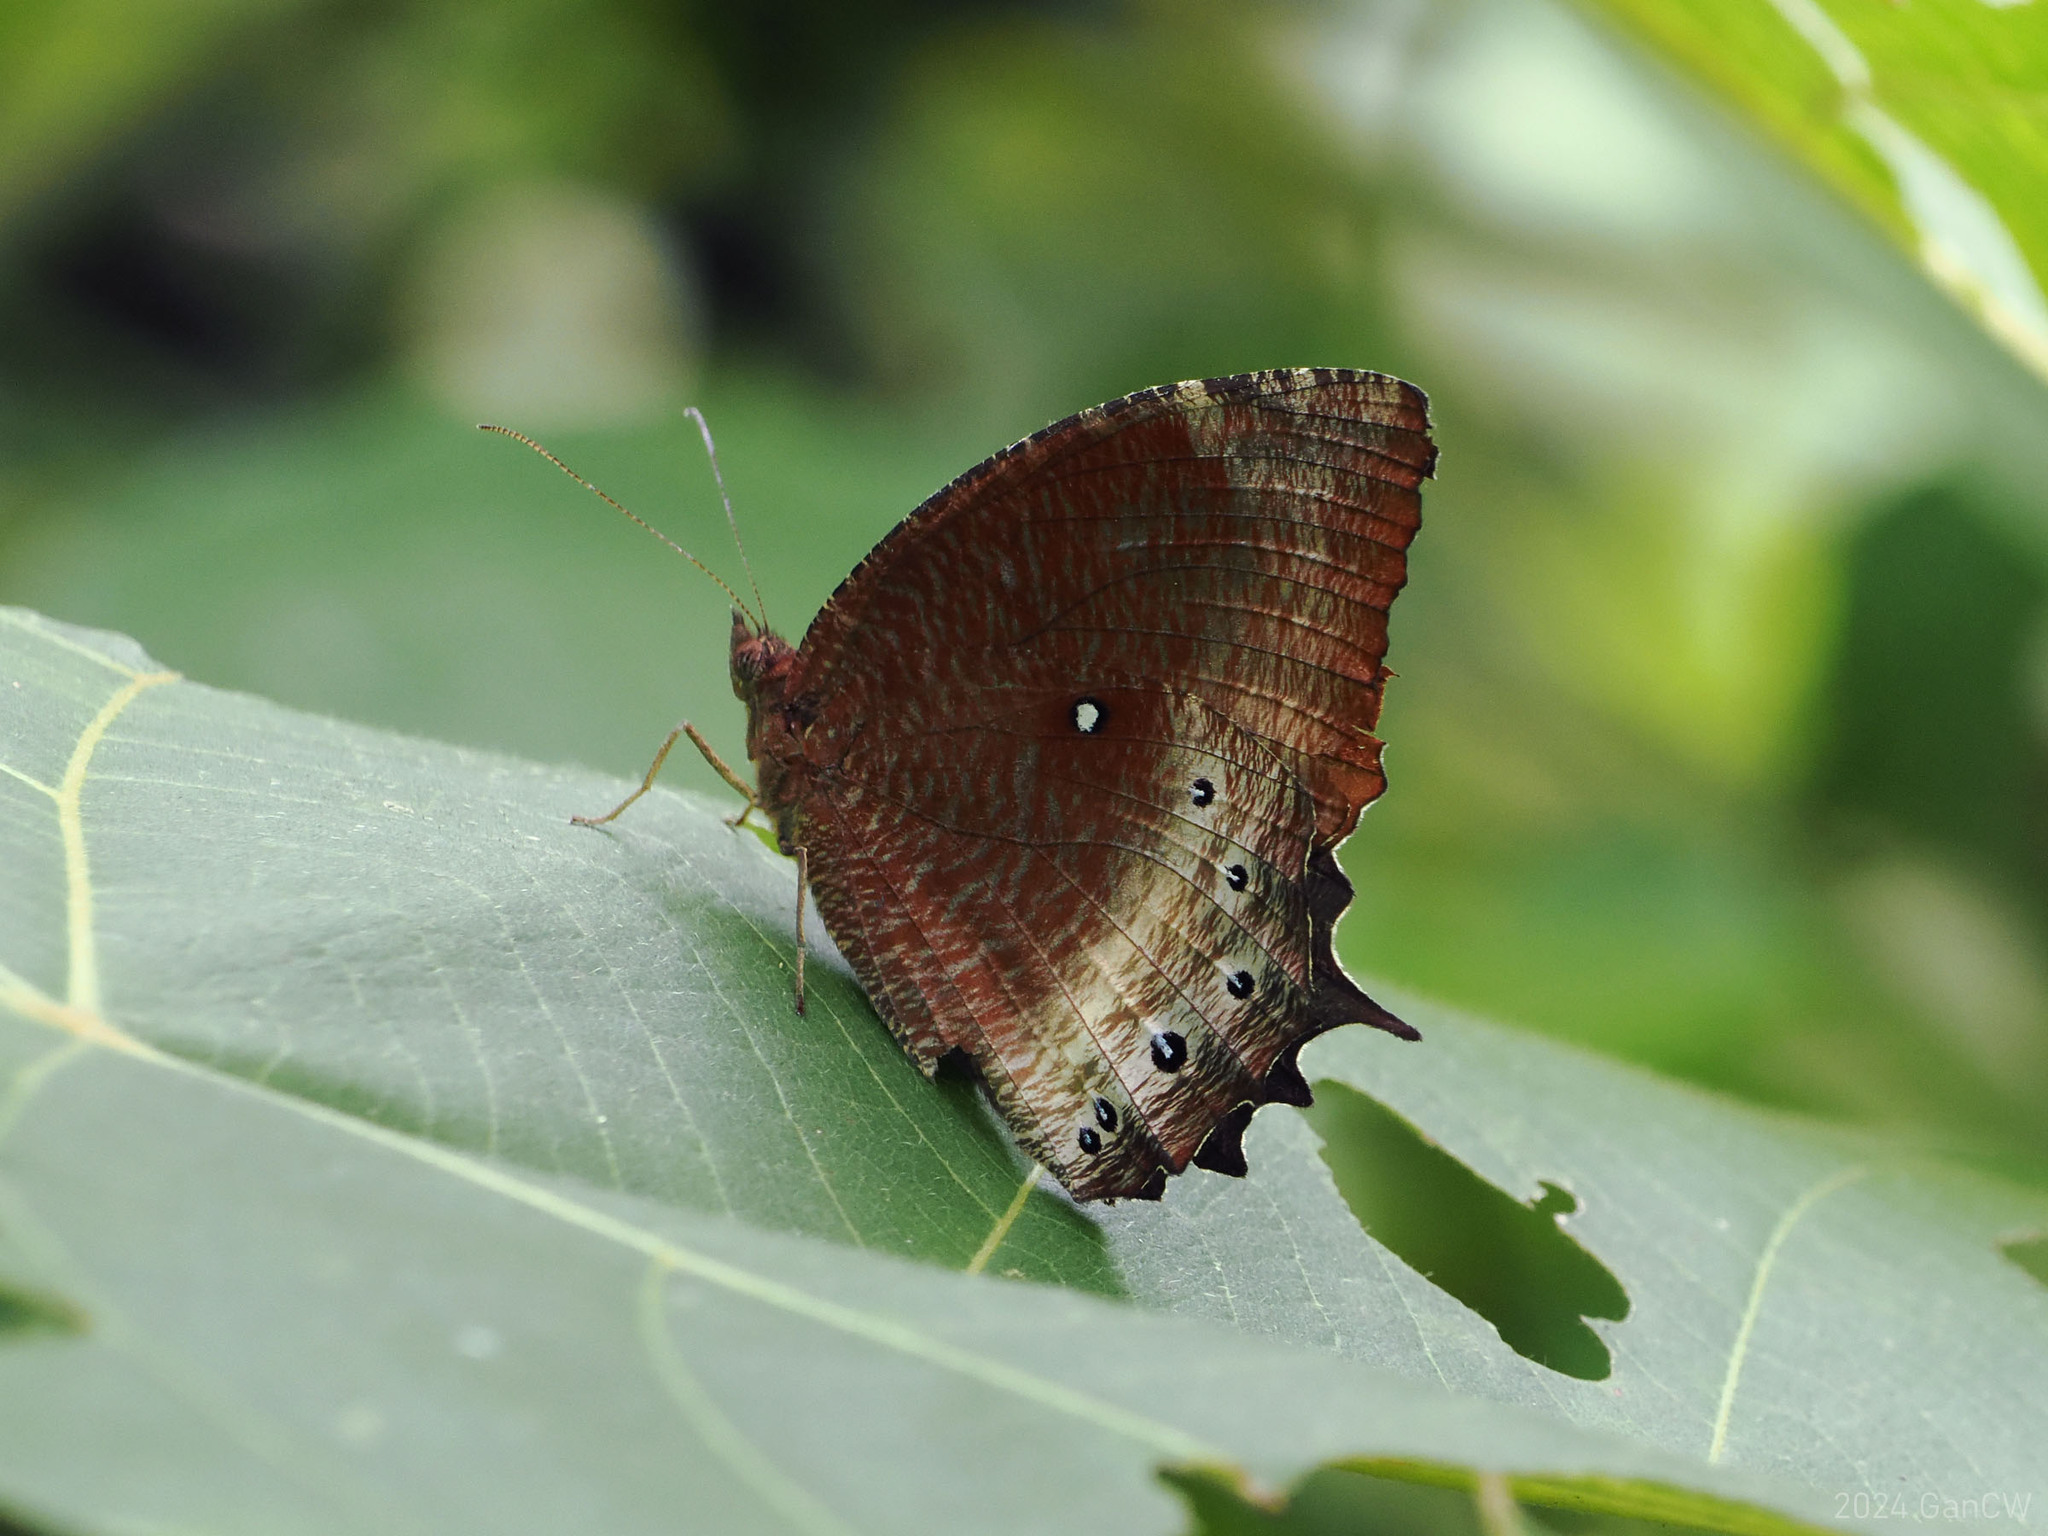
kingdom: Animalia
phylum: Arthropoda
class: Insecta
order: Lepidoptera
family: Nymphalidae
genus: Elymnias
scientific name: Elymnias panthera
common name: Tawny palmfly
